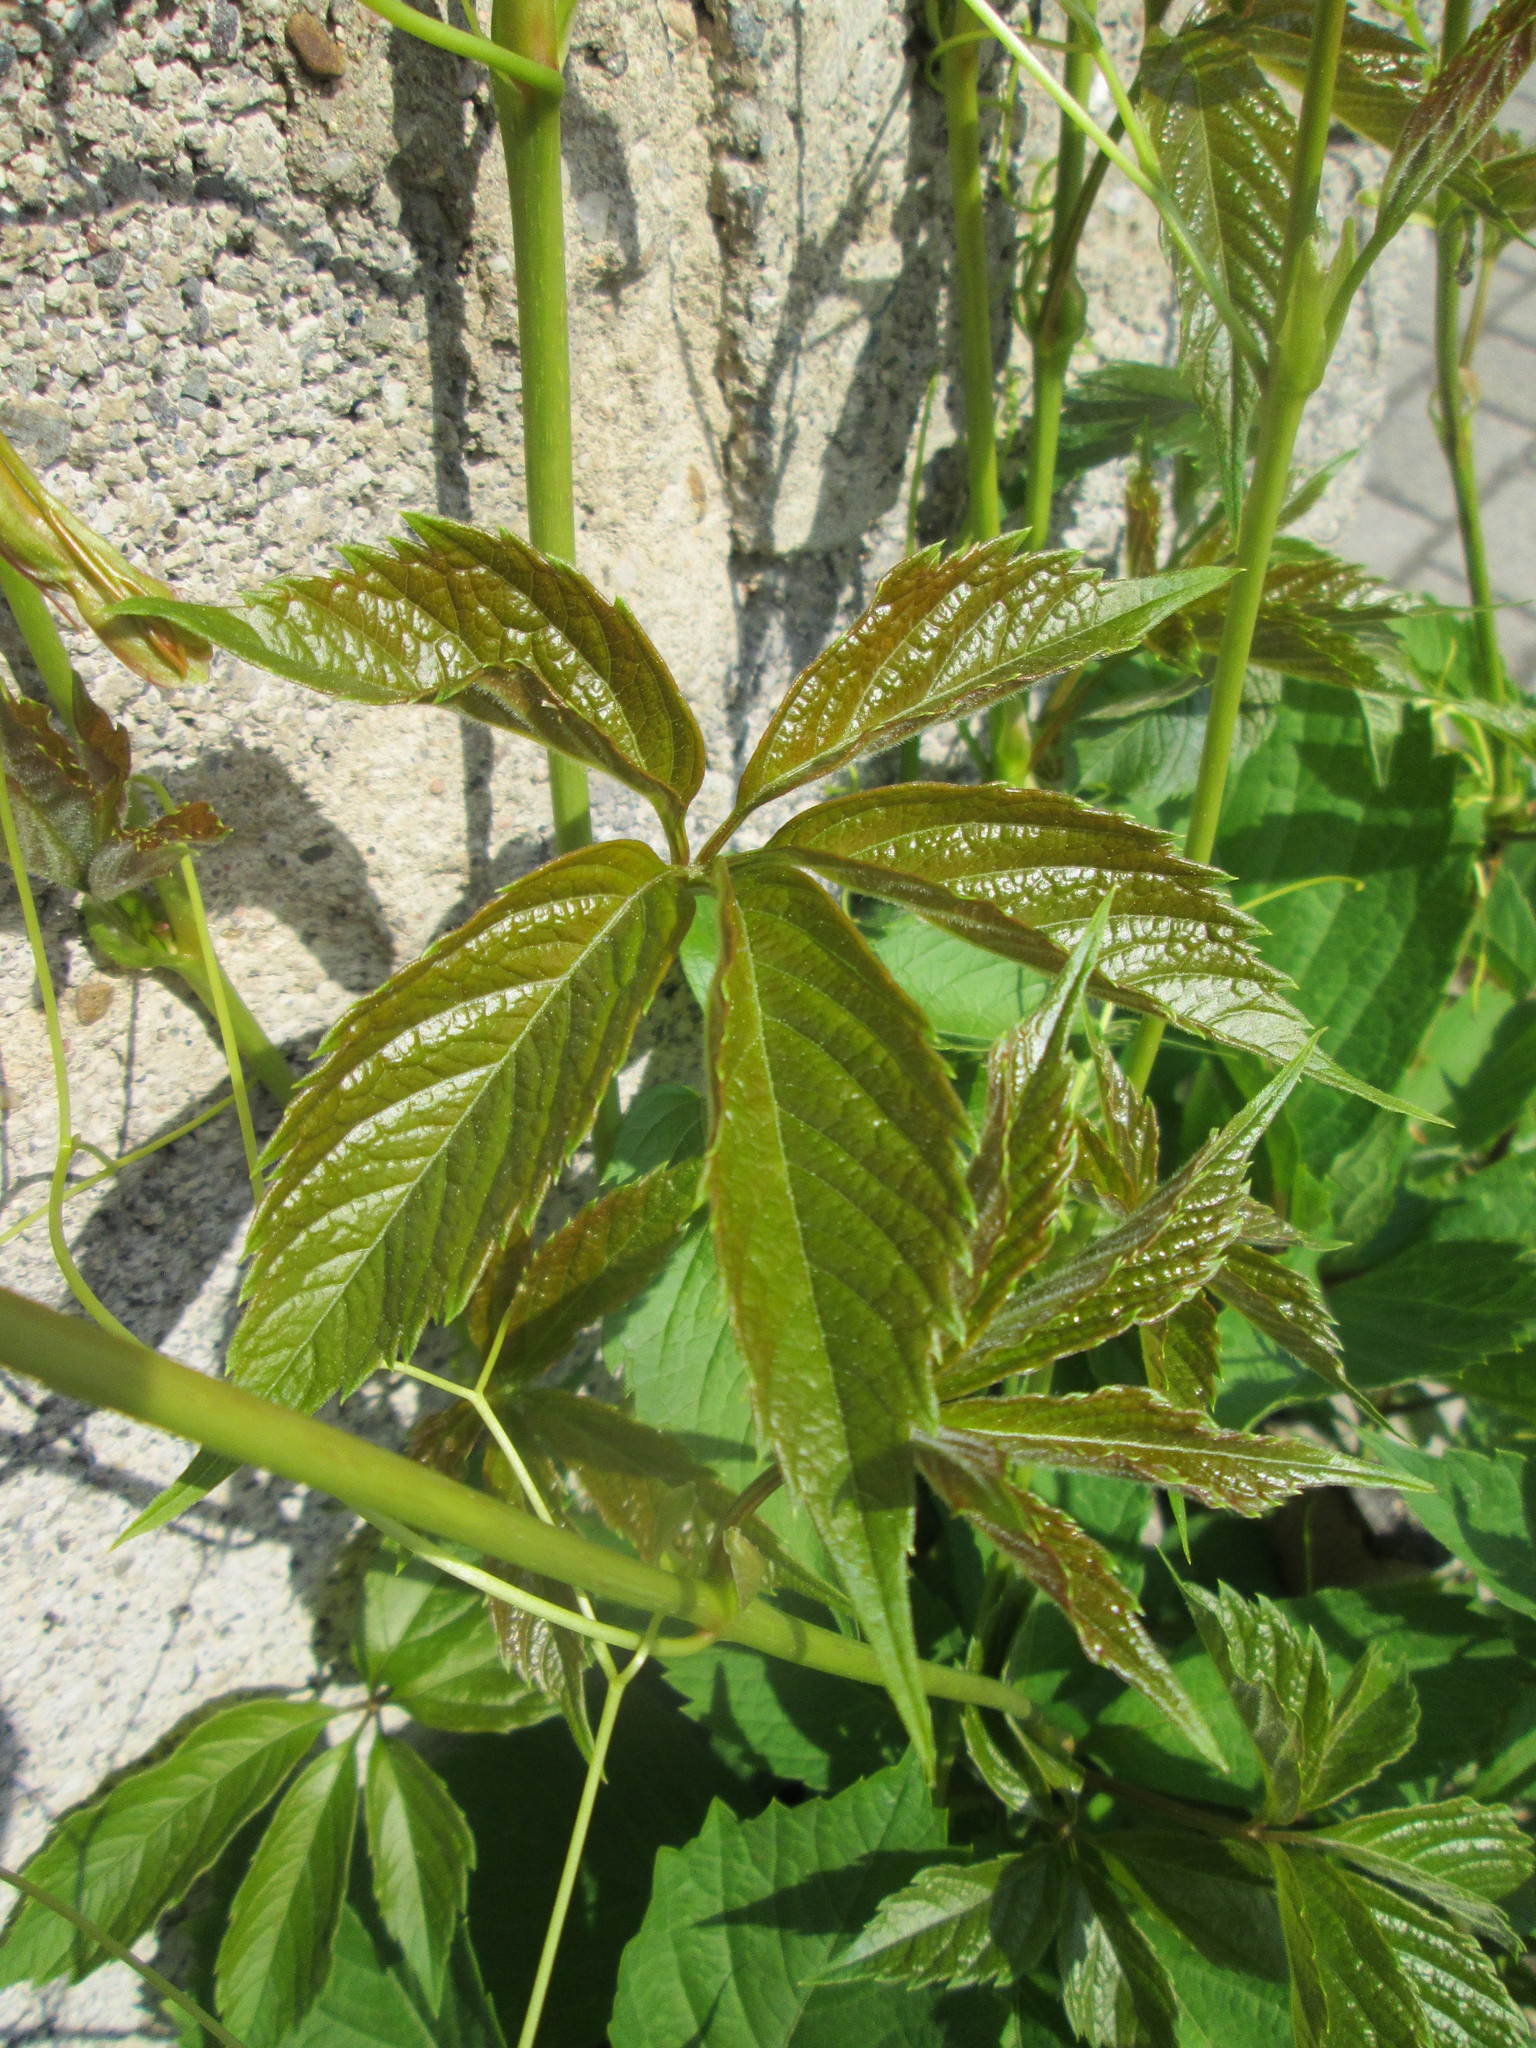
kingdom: Plantae
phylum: Tracheophyta
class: Magnoliopsida
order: Vitales
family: Vitaceae
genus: Parthenocissus
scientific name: Parthenocissus quinquefolia
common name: Virginia-creeper
